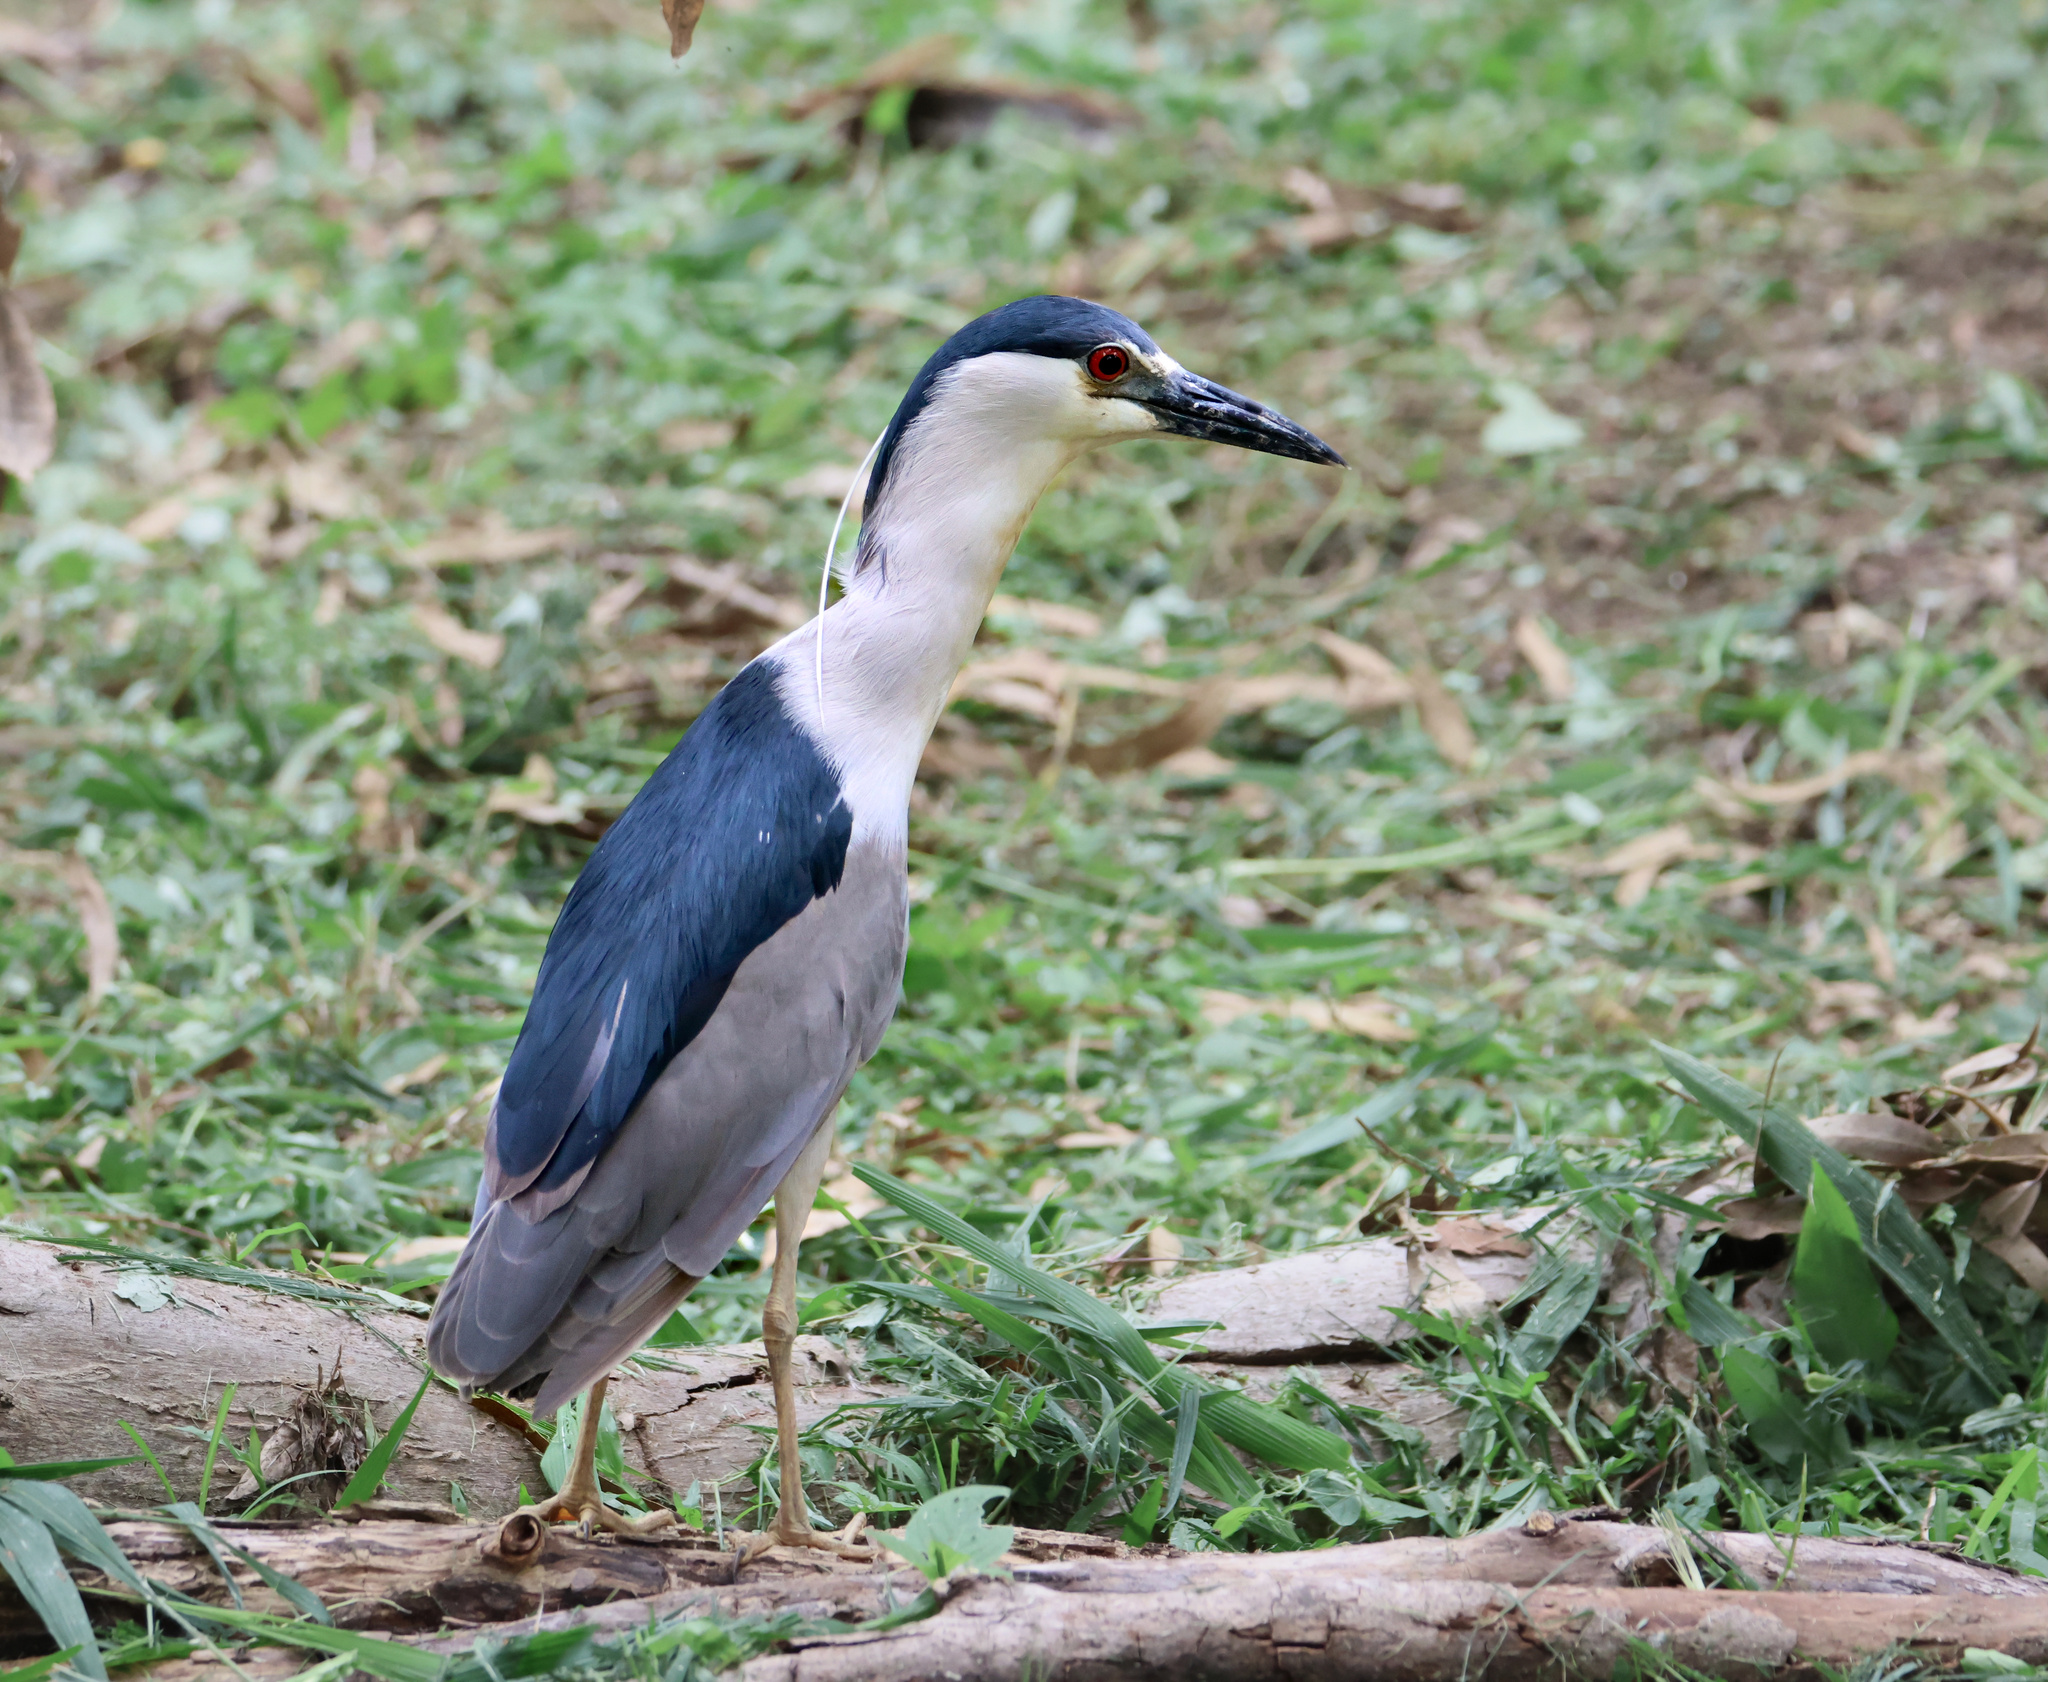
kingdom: Animalia
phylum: Chordata
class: Aves
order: Pelecaniformes
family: Ardeidae
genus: Nycticorax
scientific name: Nycticorax nycticorax
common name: Black-crowned night heron
